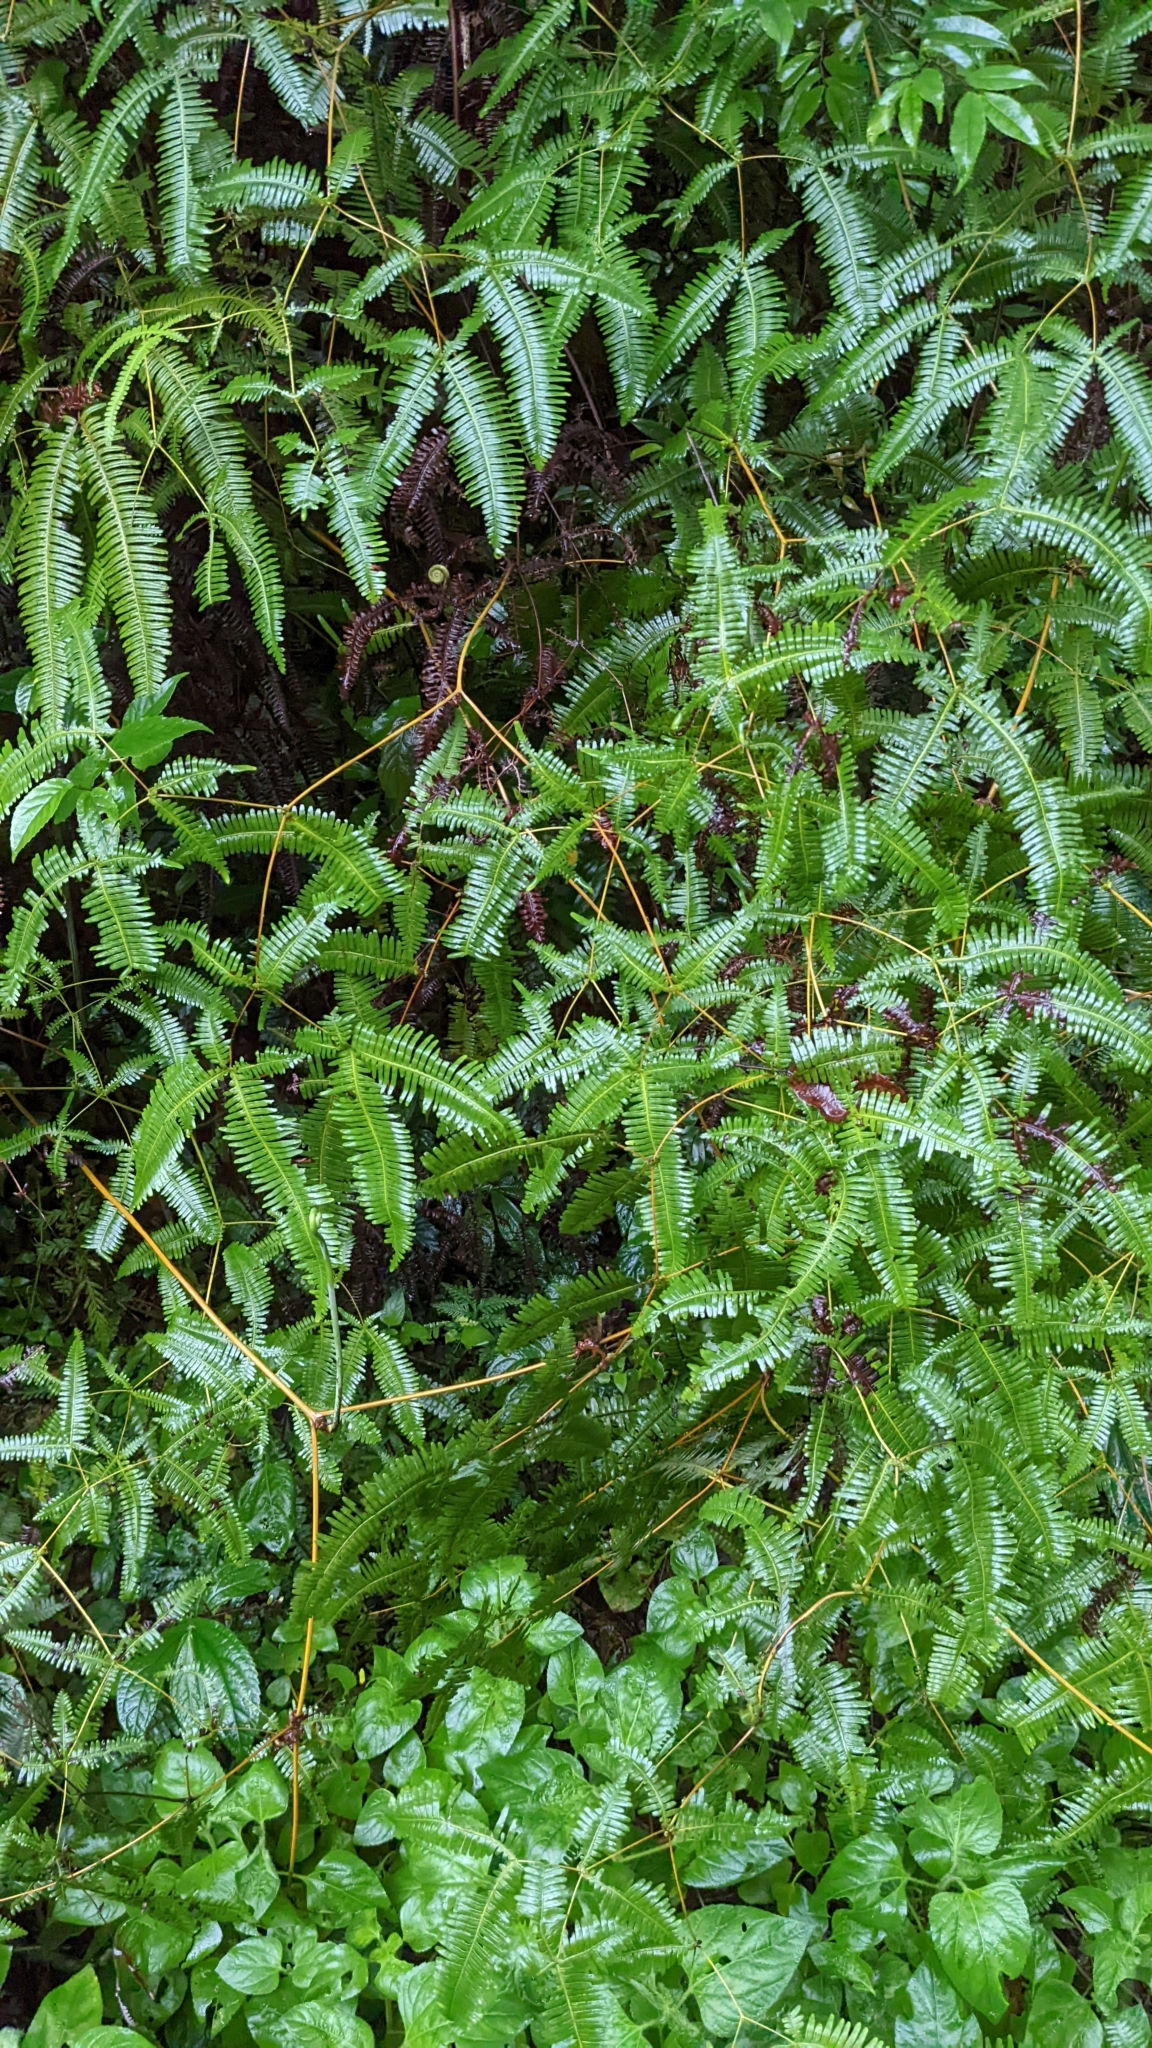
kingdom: Plantae
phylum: Tracheophyta
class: Polypodiopsida
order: Gleicheniales
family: Gleicheniaceae
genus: Dicranopteris
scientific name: Dicranopteris tetraphylla
